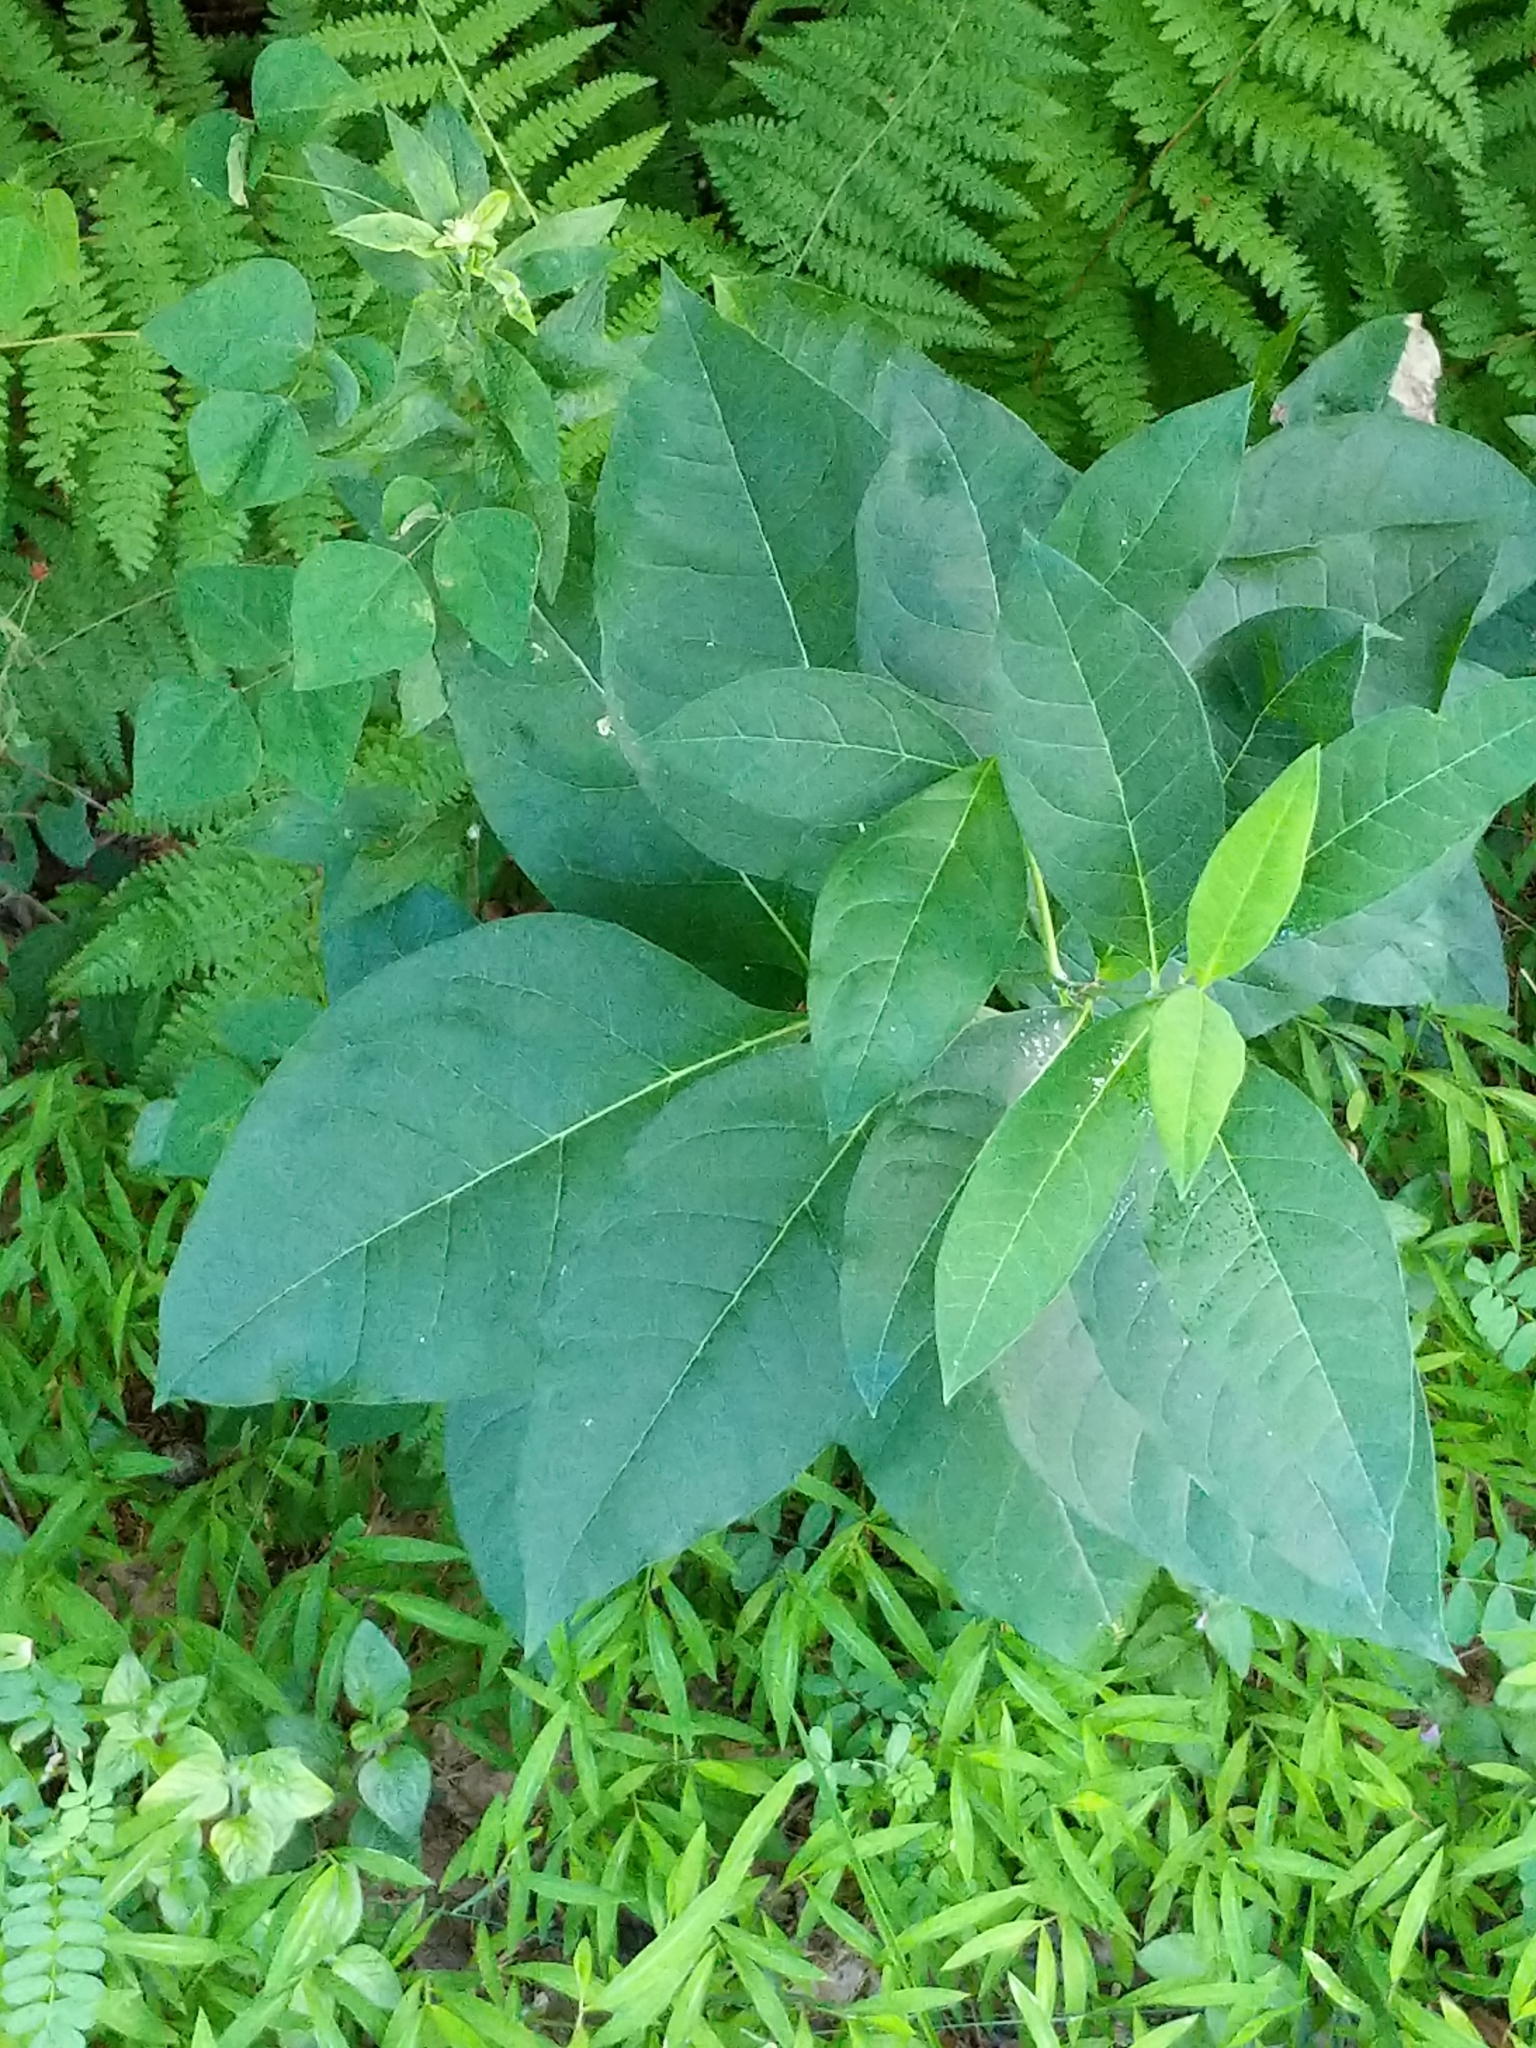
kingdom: Plantae
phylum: Tracheophyta
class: Magnoliopsida
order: Gentianales
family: Apocynaceae
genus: Asclepias
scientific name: Asclepias exaltata
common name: Poke milkweed
